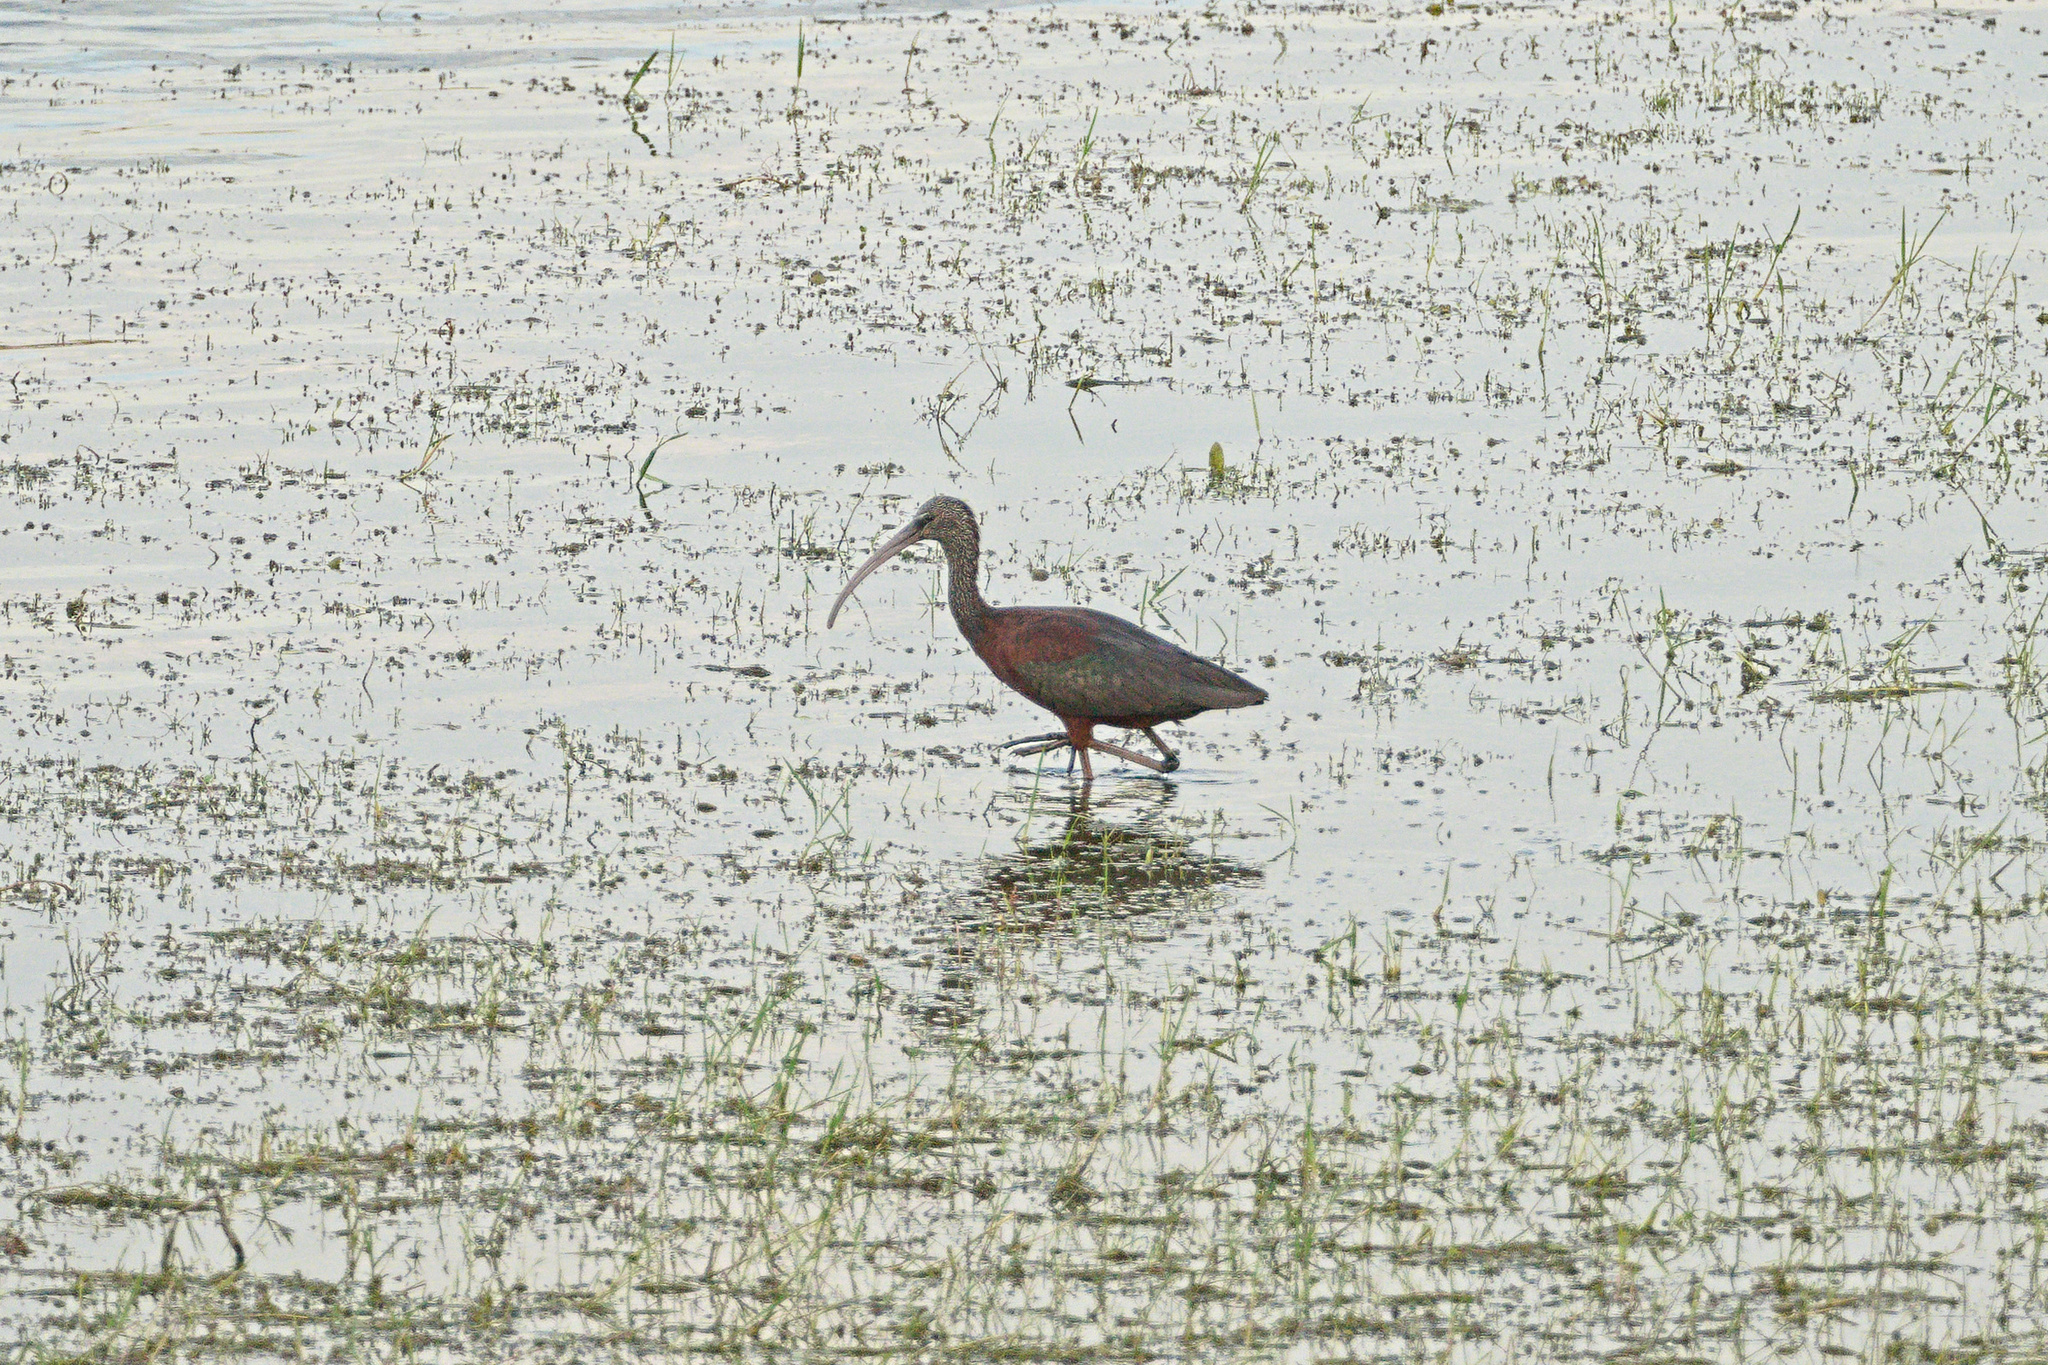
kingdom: Animalia
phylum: Chordata
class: Aves
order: Pelecaniformes
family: Threskiornithidae
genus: Plegadis
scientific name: Plegadis falcinellus
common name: Glossy ibis
